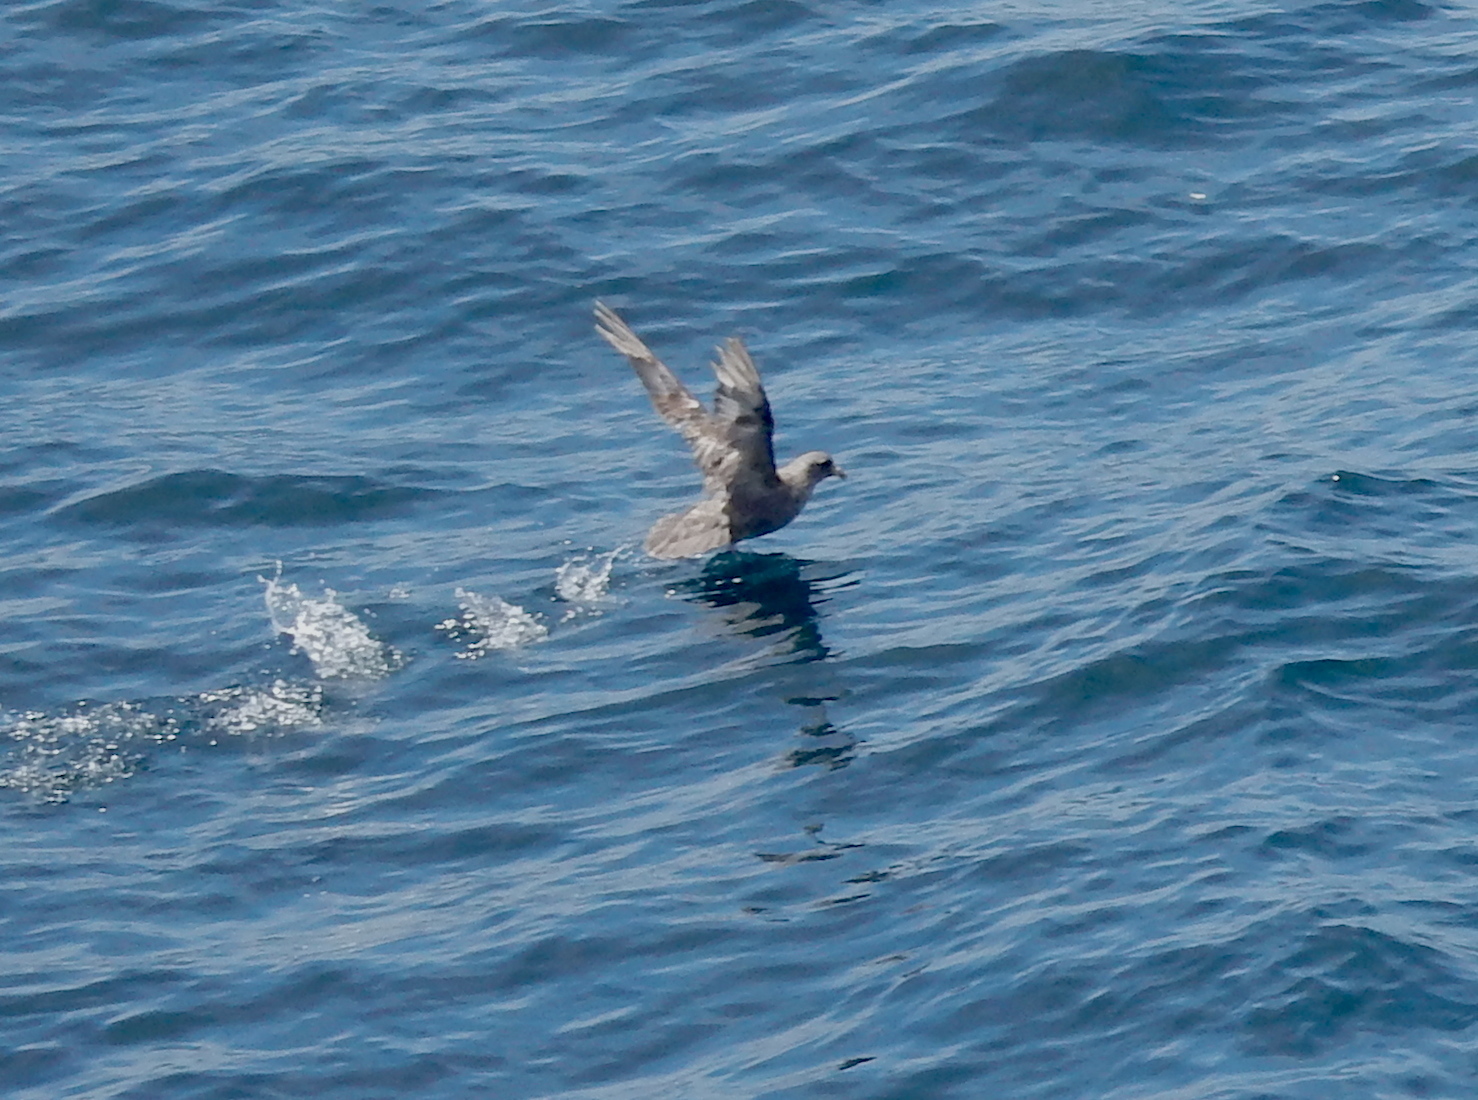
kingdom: Animalia
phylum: Chordata
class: Aves
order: Procellariiformes
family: Procellariidae
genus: Fulmarus
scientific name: Fulmarus glacialis
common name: Northern fulmar
